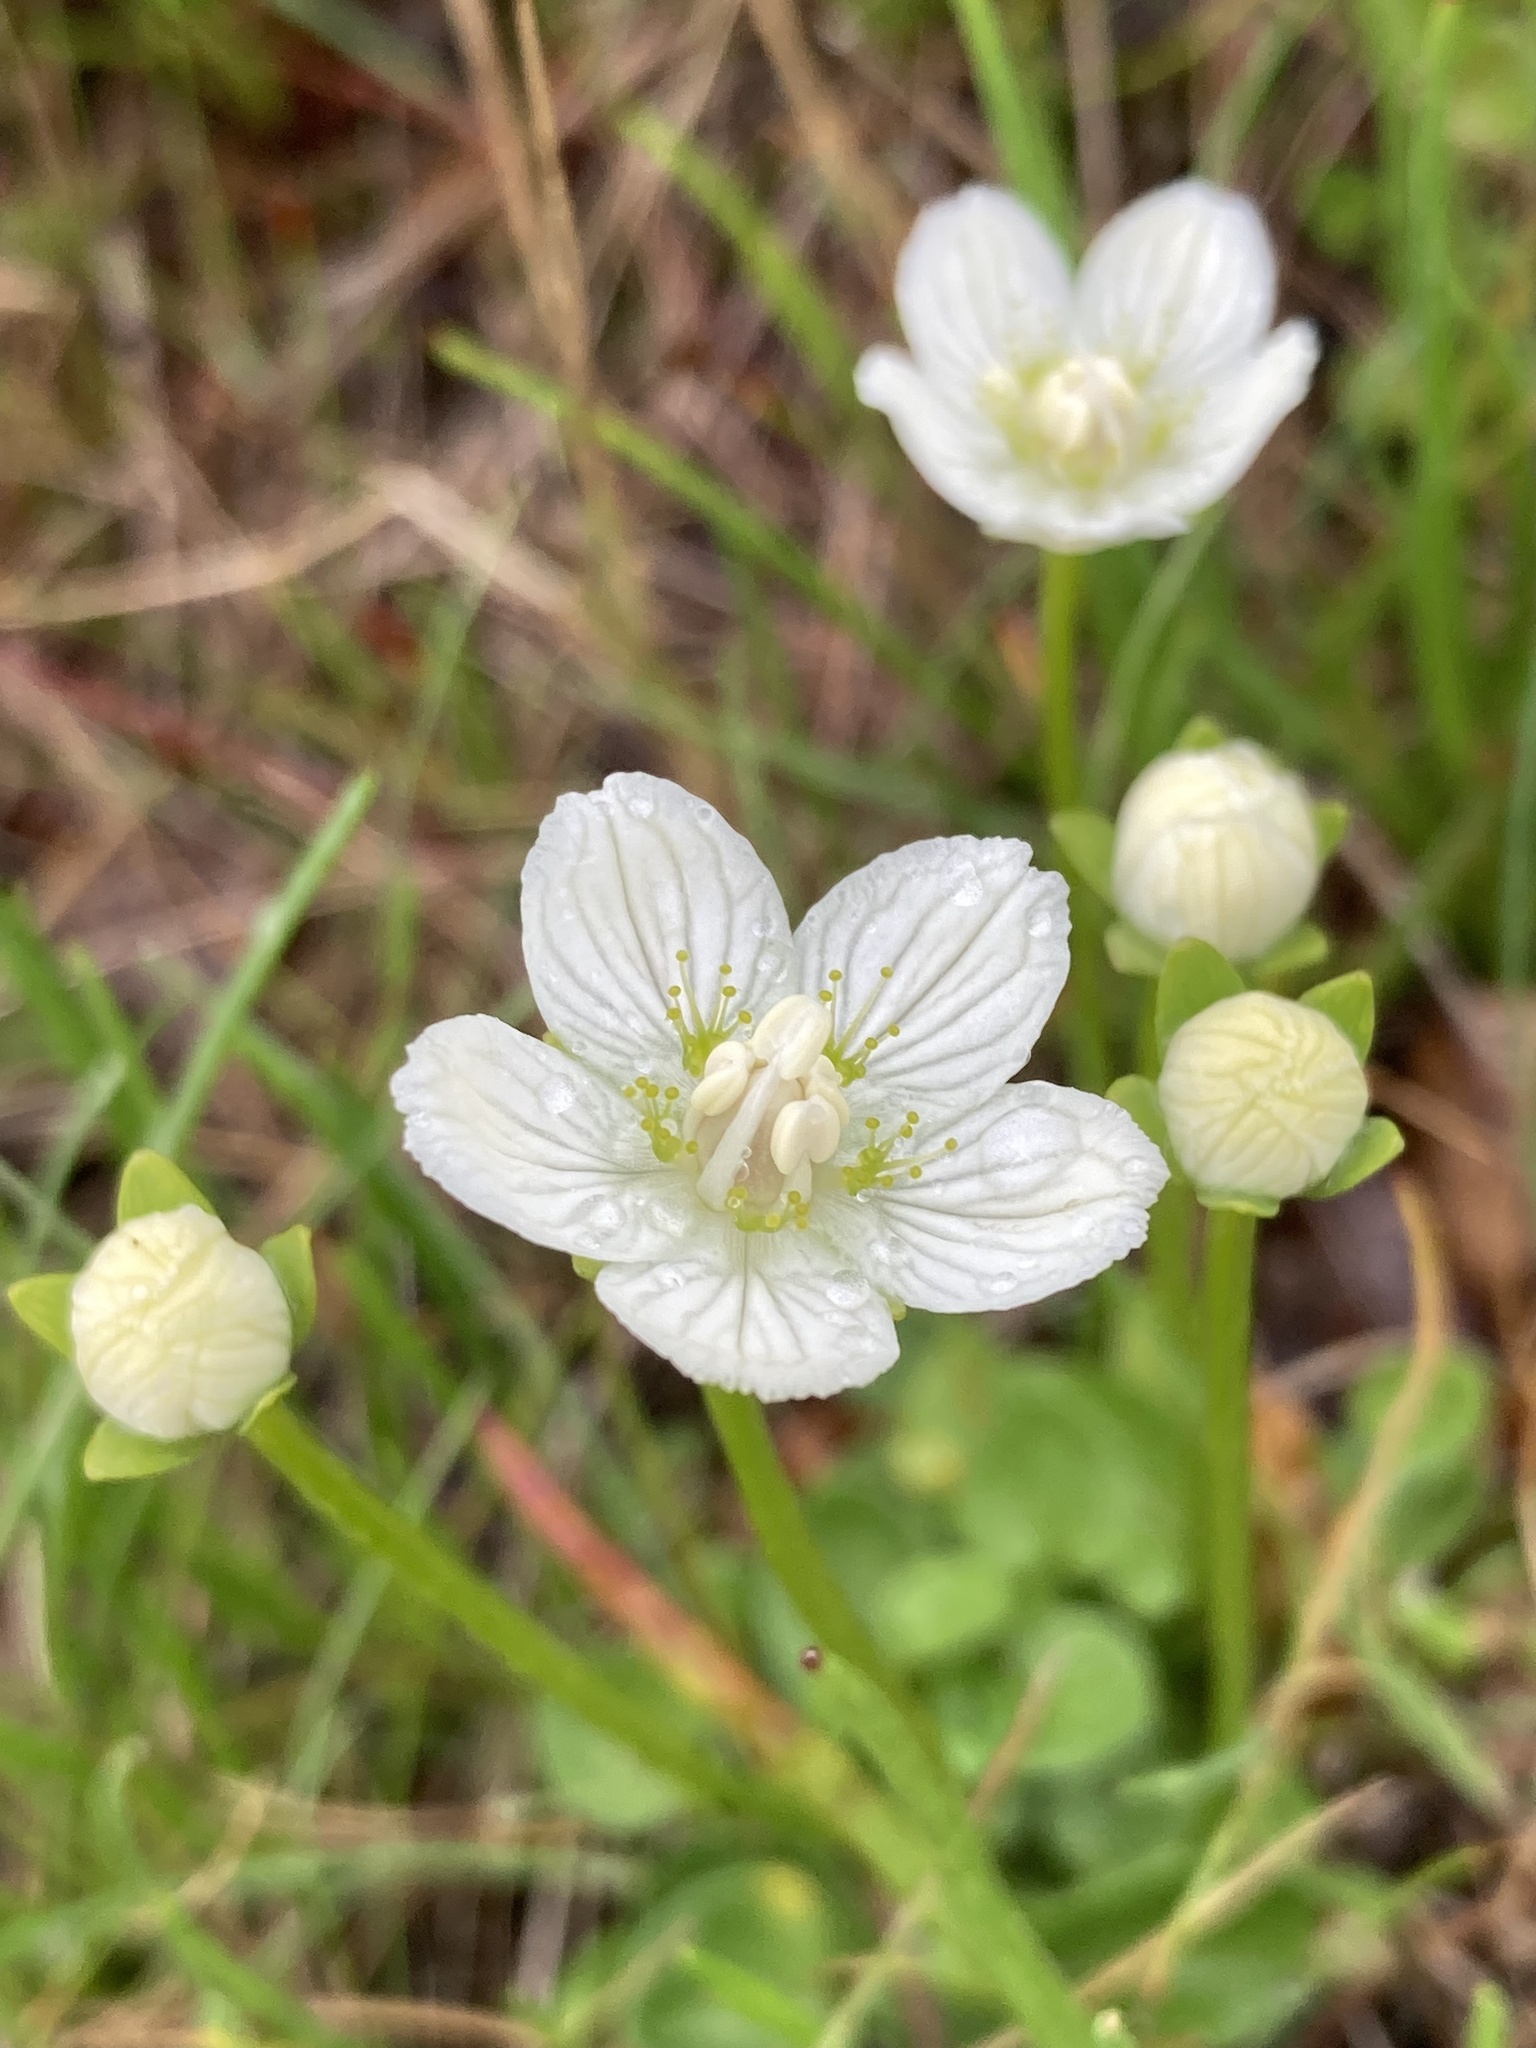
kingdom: Plantae
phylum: Tracheophyta
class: Magnoliopsida
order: Celastrales
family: Parnassiaceae
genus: Parnassia
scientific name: Parnassia palustris
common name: Grass-of-parnassus
